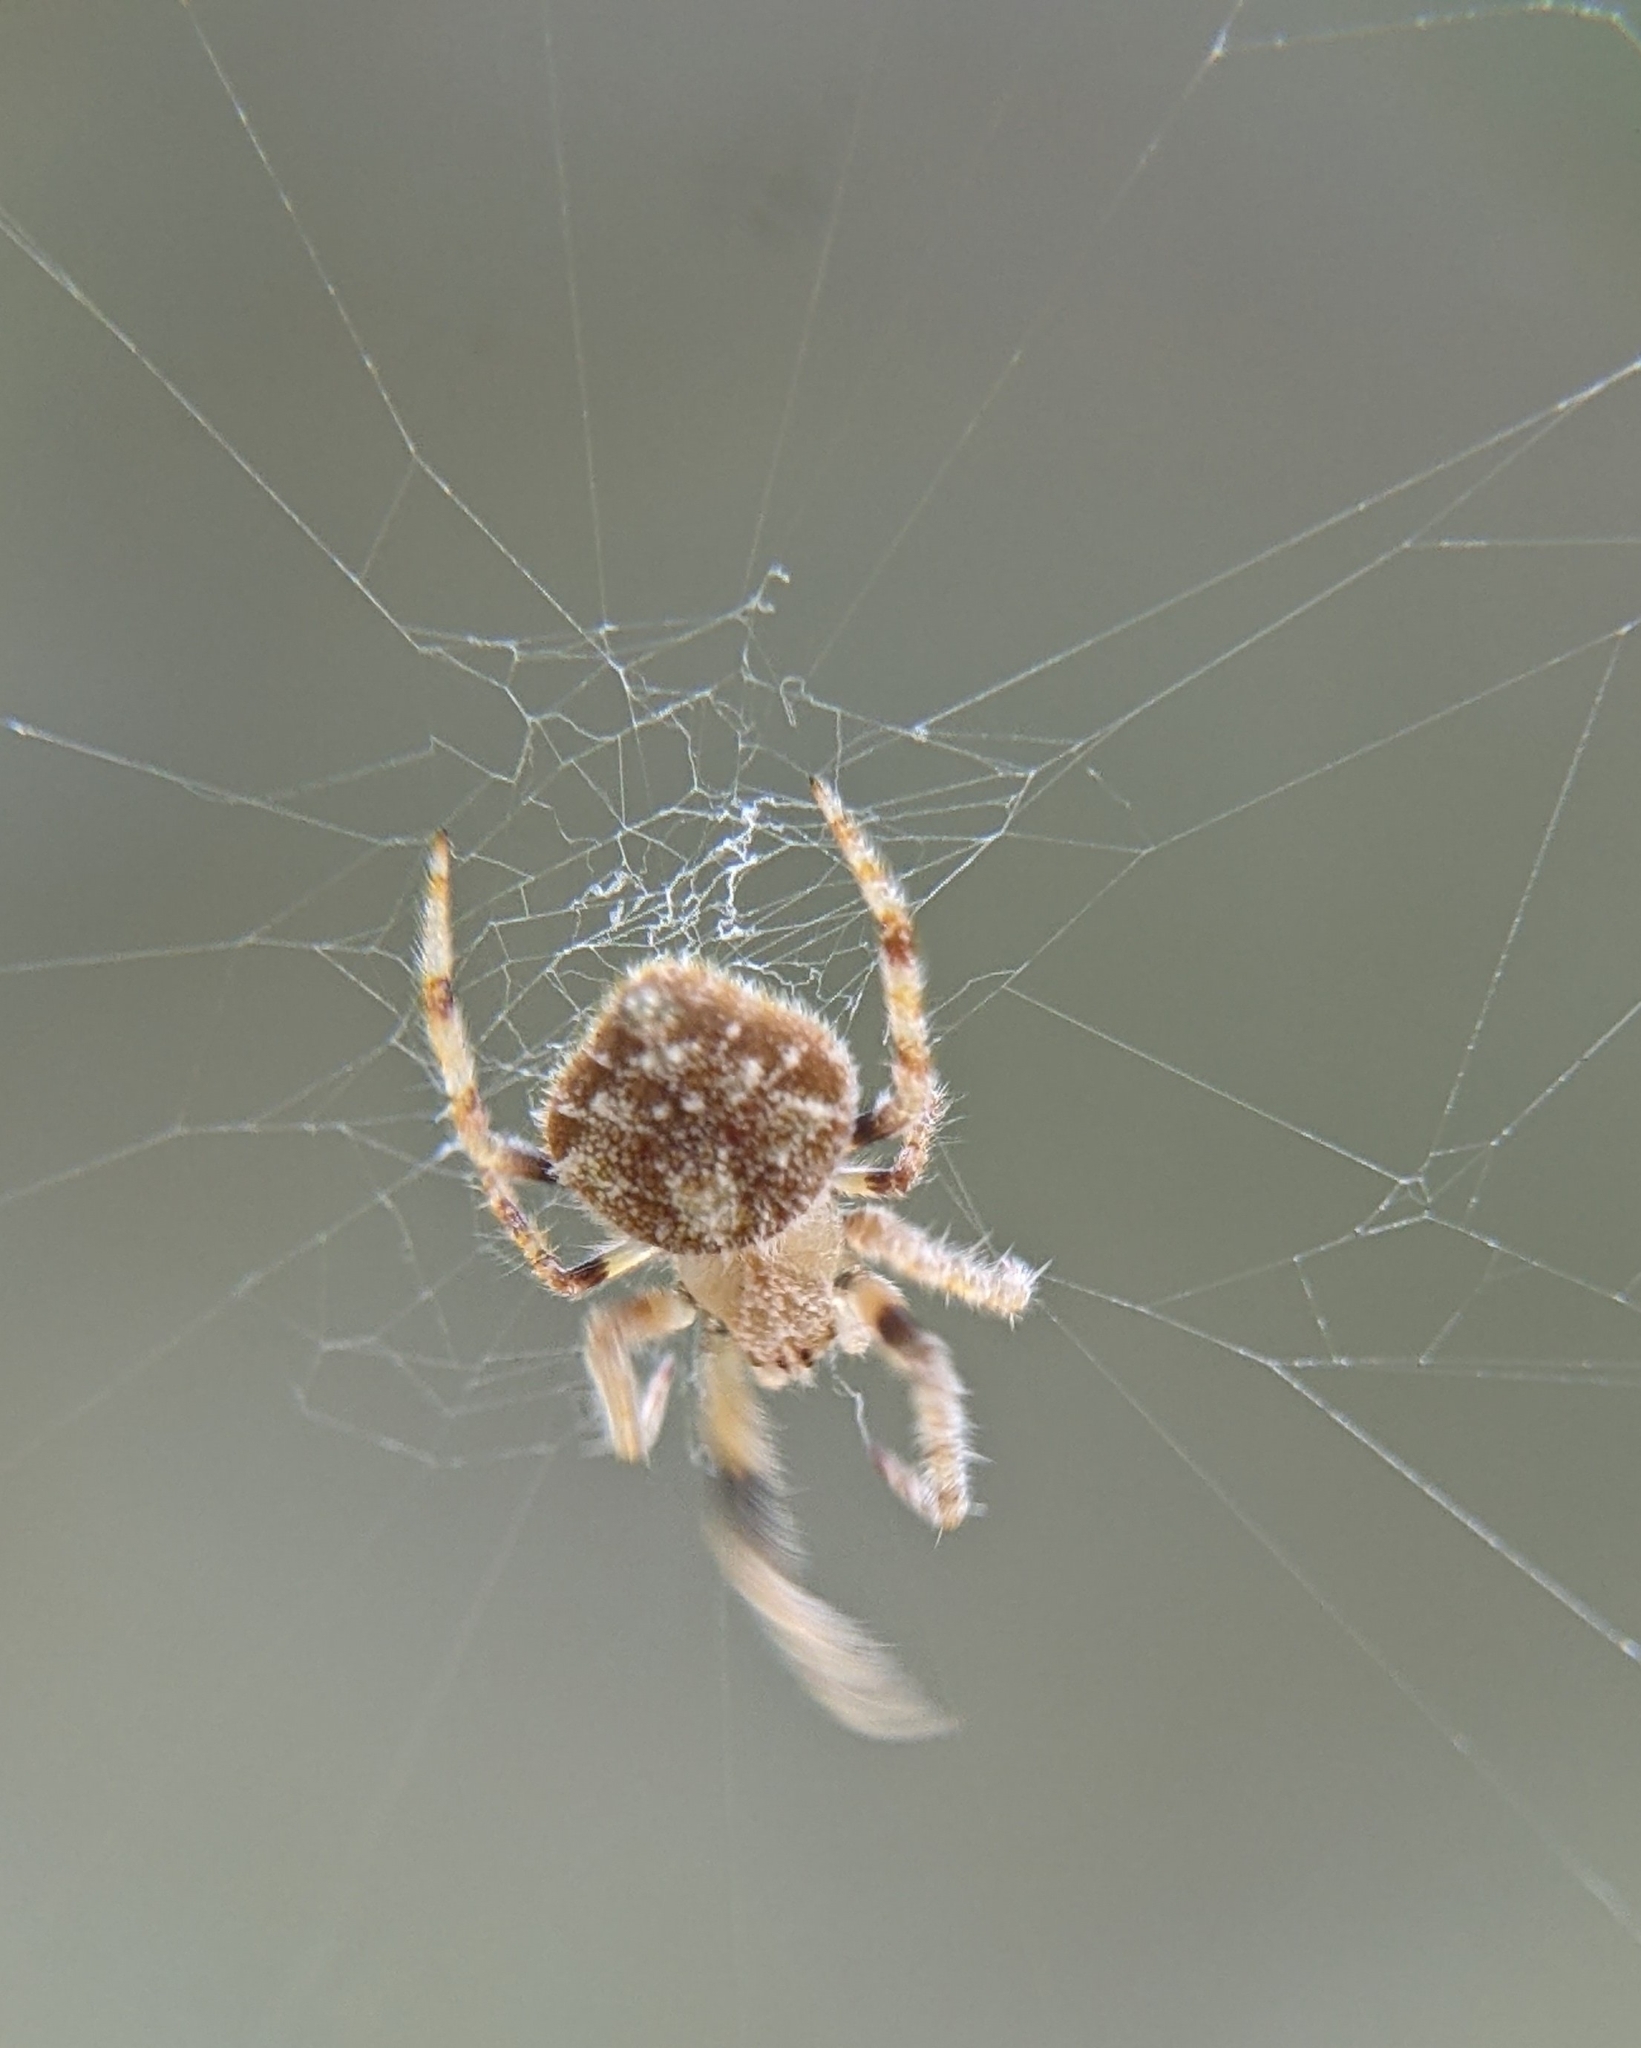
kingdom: Animalia
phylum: Arthropoda
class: Arachnida
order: Araneae
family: Araneidae
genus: Eriovixia
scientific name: Eriovixia laglaizei
